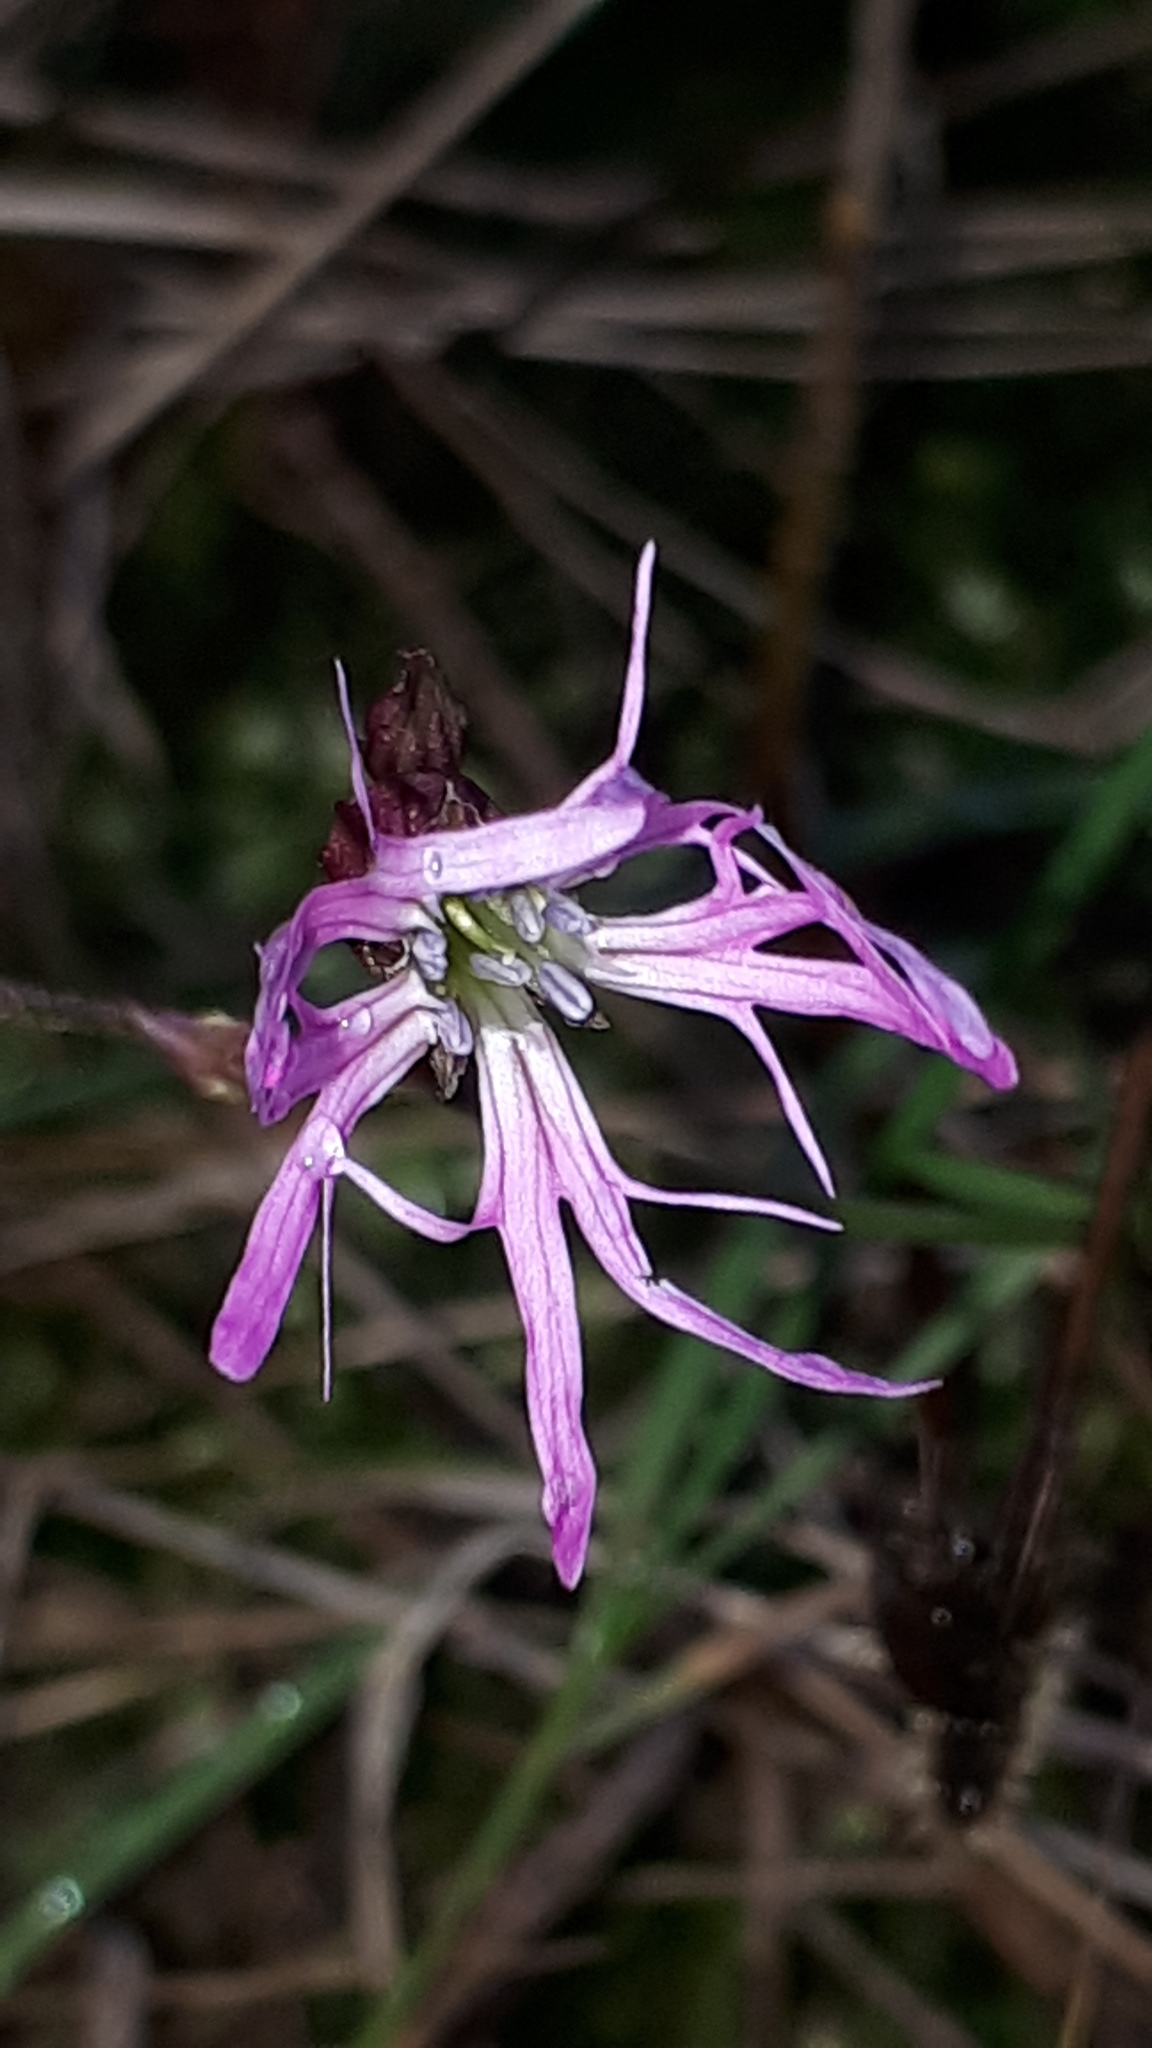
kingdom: Plantae
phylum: Tracheophyta
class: Magnoliopsida
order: Caryophyllales
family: Caryophyllaceae
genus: Silene
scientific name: Silene flos-cuculi
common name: Ragged-robin
